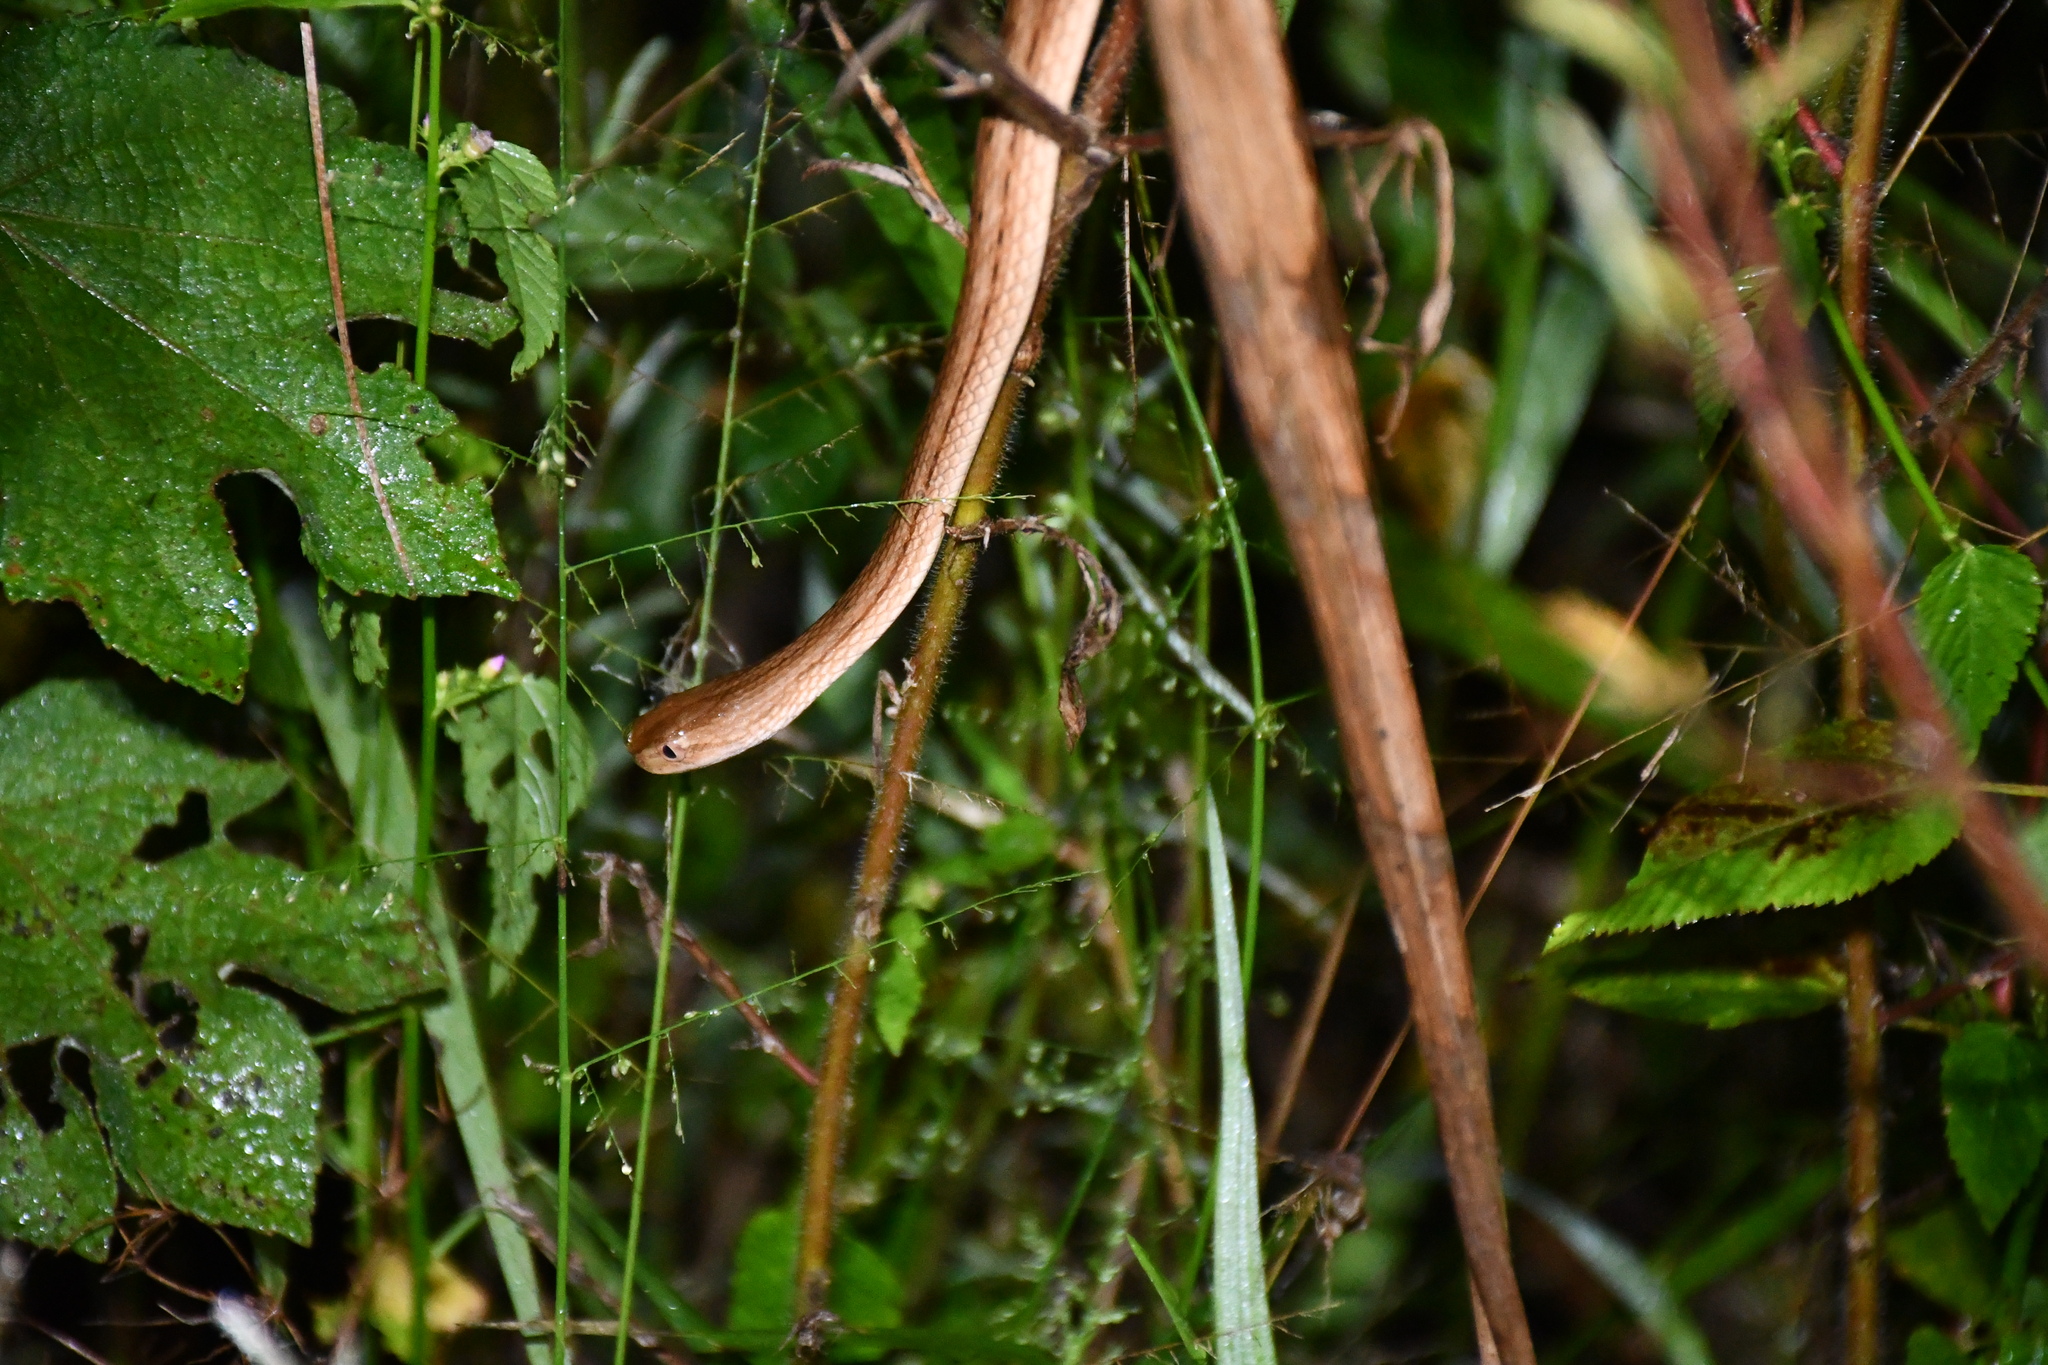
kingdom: Animalia
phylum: Chordata
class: Squamata
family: Colubridae
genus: Thamnodynastes
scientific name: Thamnodynastes pallidus
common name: Amazon coastal house snake
